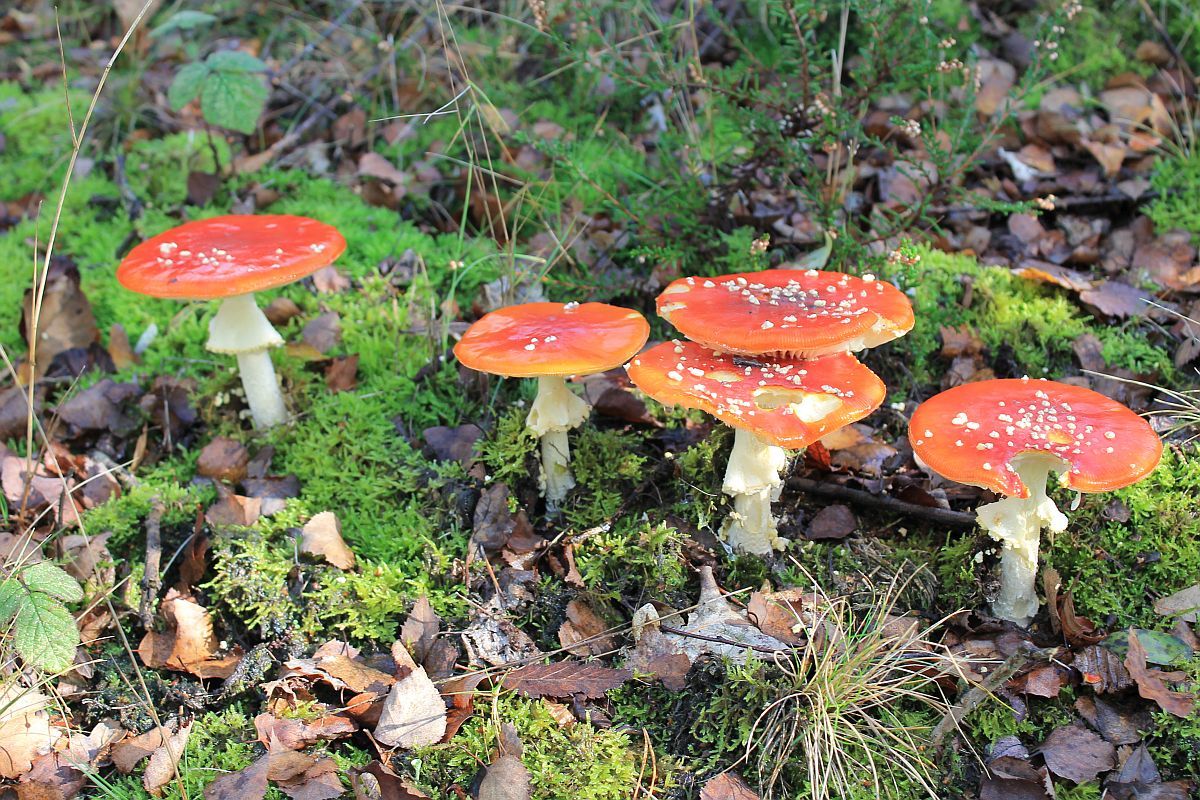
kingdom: Fungi
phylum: Basidiomycota
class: Agaricomycetes
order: Agaricales
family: Amanitaceae
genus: Amanita
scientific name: Amanita muscaria
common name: Fly agaric
